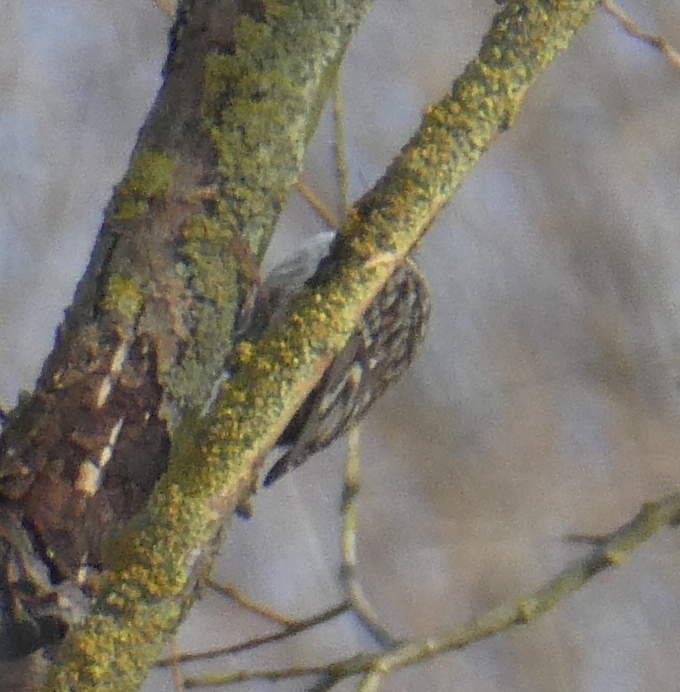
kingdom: Animalia
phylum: Chordata
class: Aves
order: Passeriformes
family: Certhiidae
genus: Certhia
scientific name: Certhia brachydactyla
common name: Short-toed treecreeper
